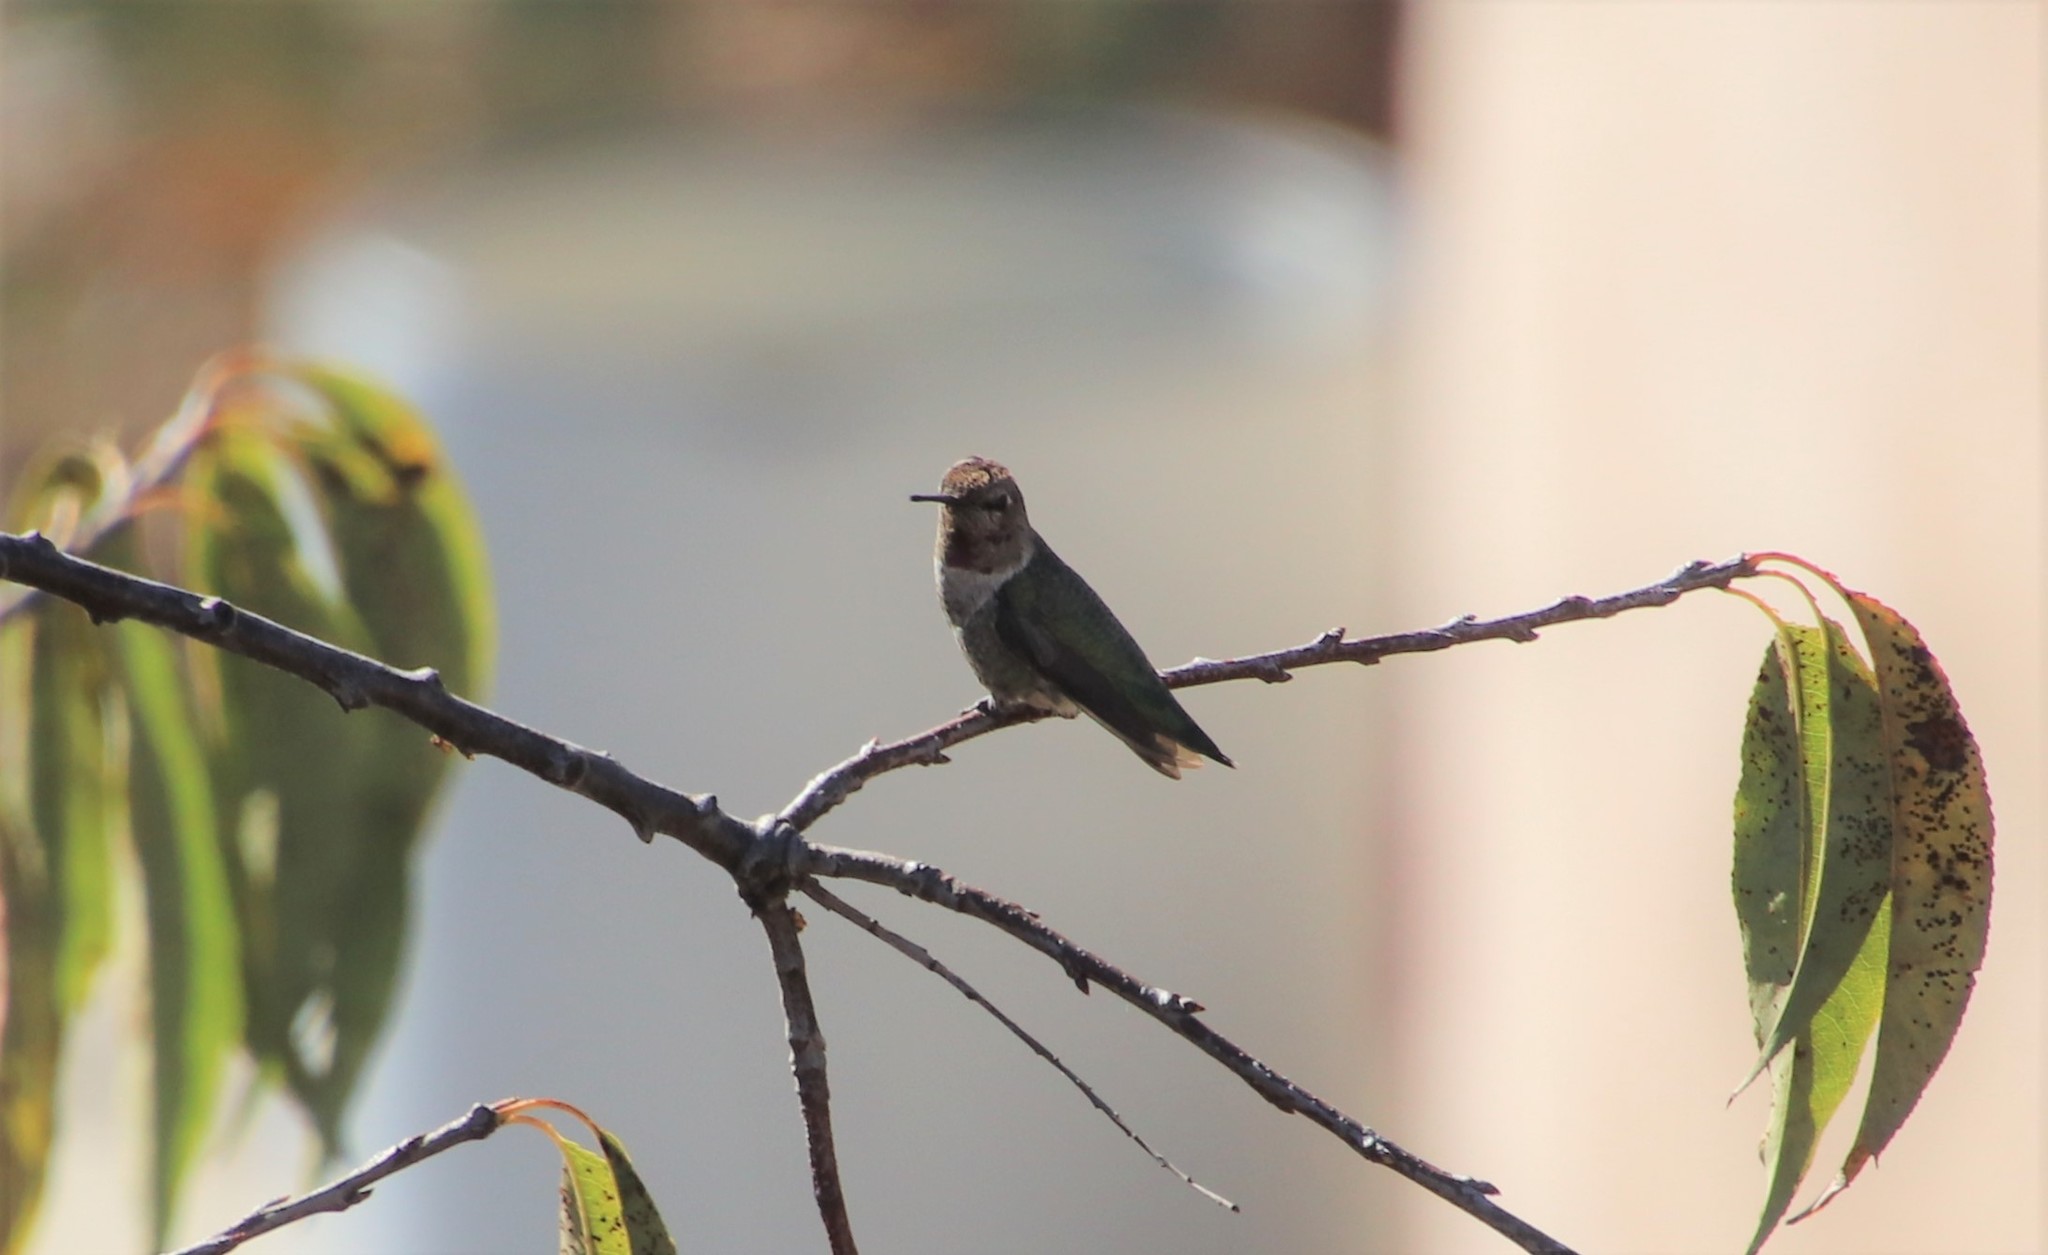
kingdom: Animalia
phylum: Chordata
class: Aves
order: Apodiformes
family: Trochilidae
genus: Calypte
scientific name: Calypte anna
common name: Anna's hummingbird
